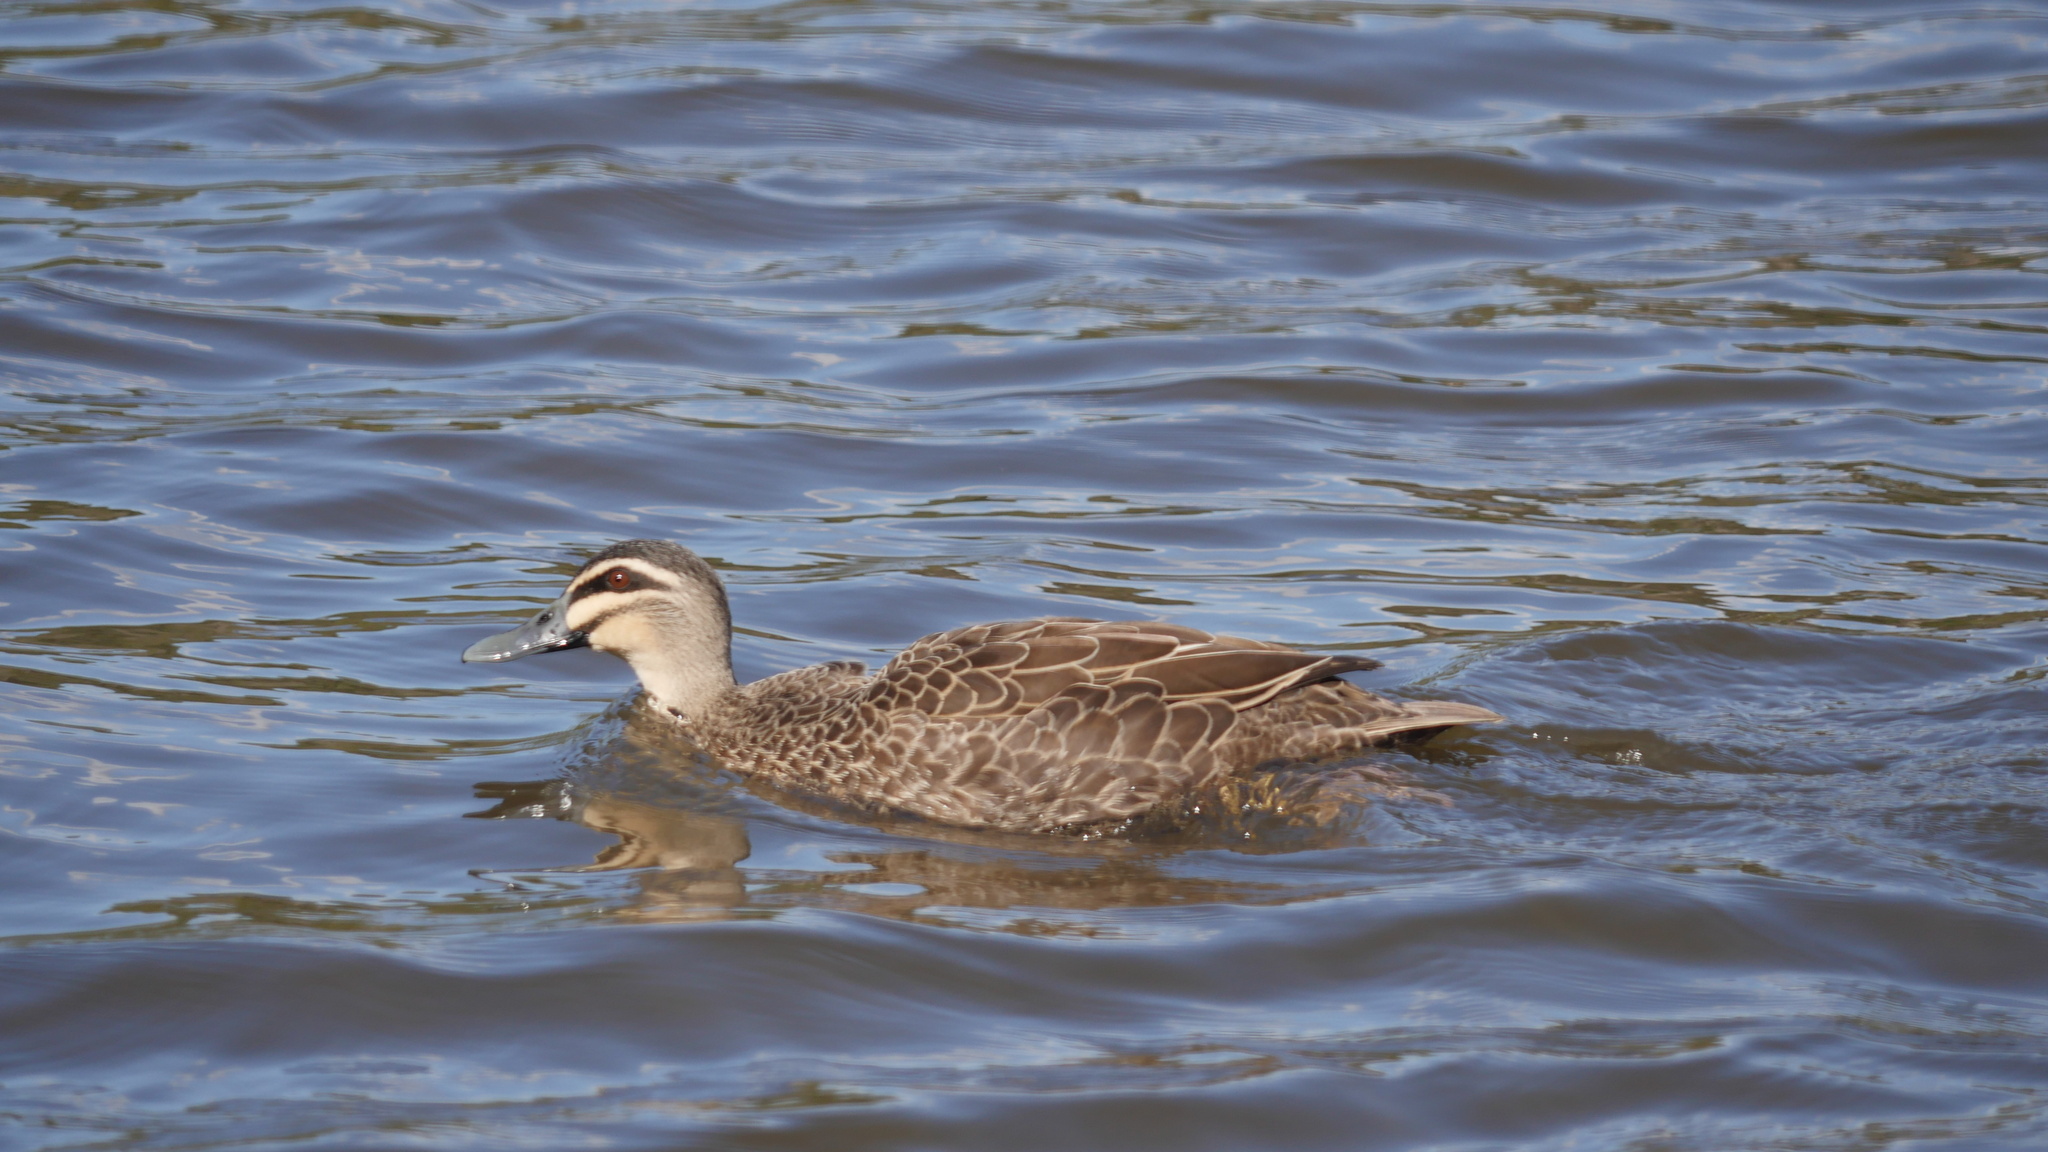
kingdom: Animalia
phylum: Chordata
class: Aves
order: Anseriformes
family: Anatidae
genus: Anas
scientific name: Anas superciliosa
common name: Pacific black duck
